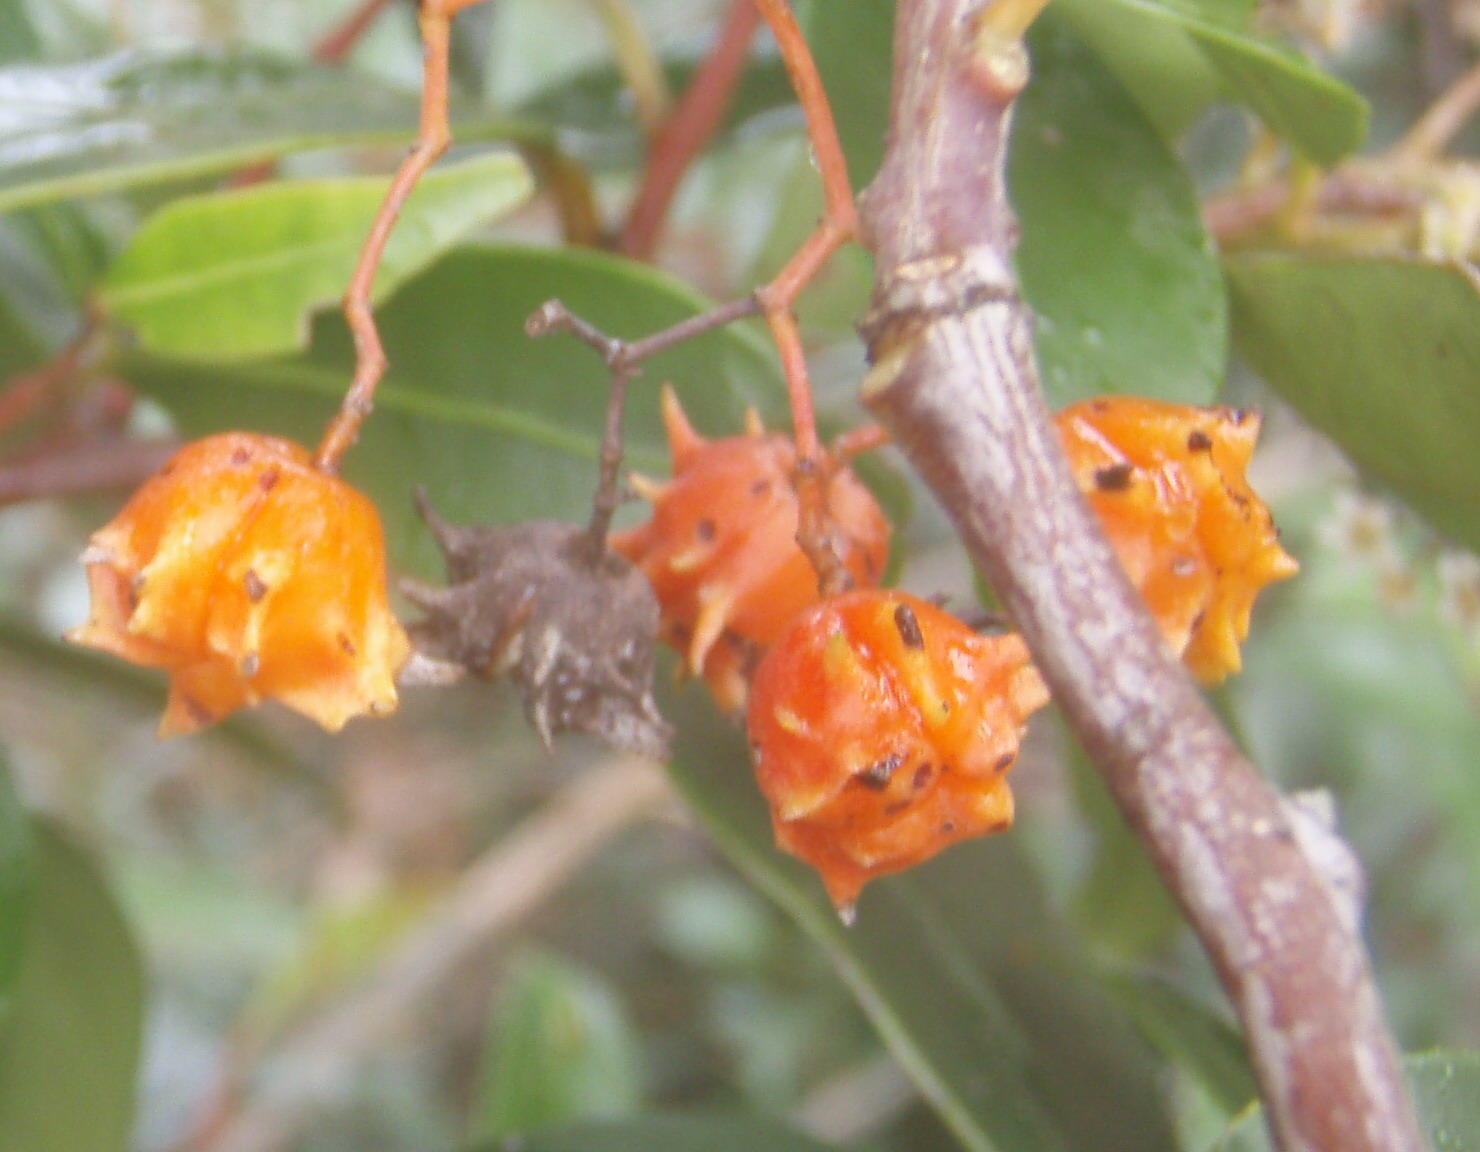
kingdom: Plantae
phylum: Tracheophyta
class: Magnoliopsida
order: Celastrales
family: Celastraceae
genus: Pterocelastrus
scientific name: Pterocelastrus rostratus
